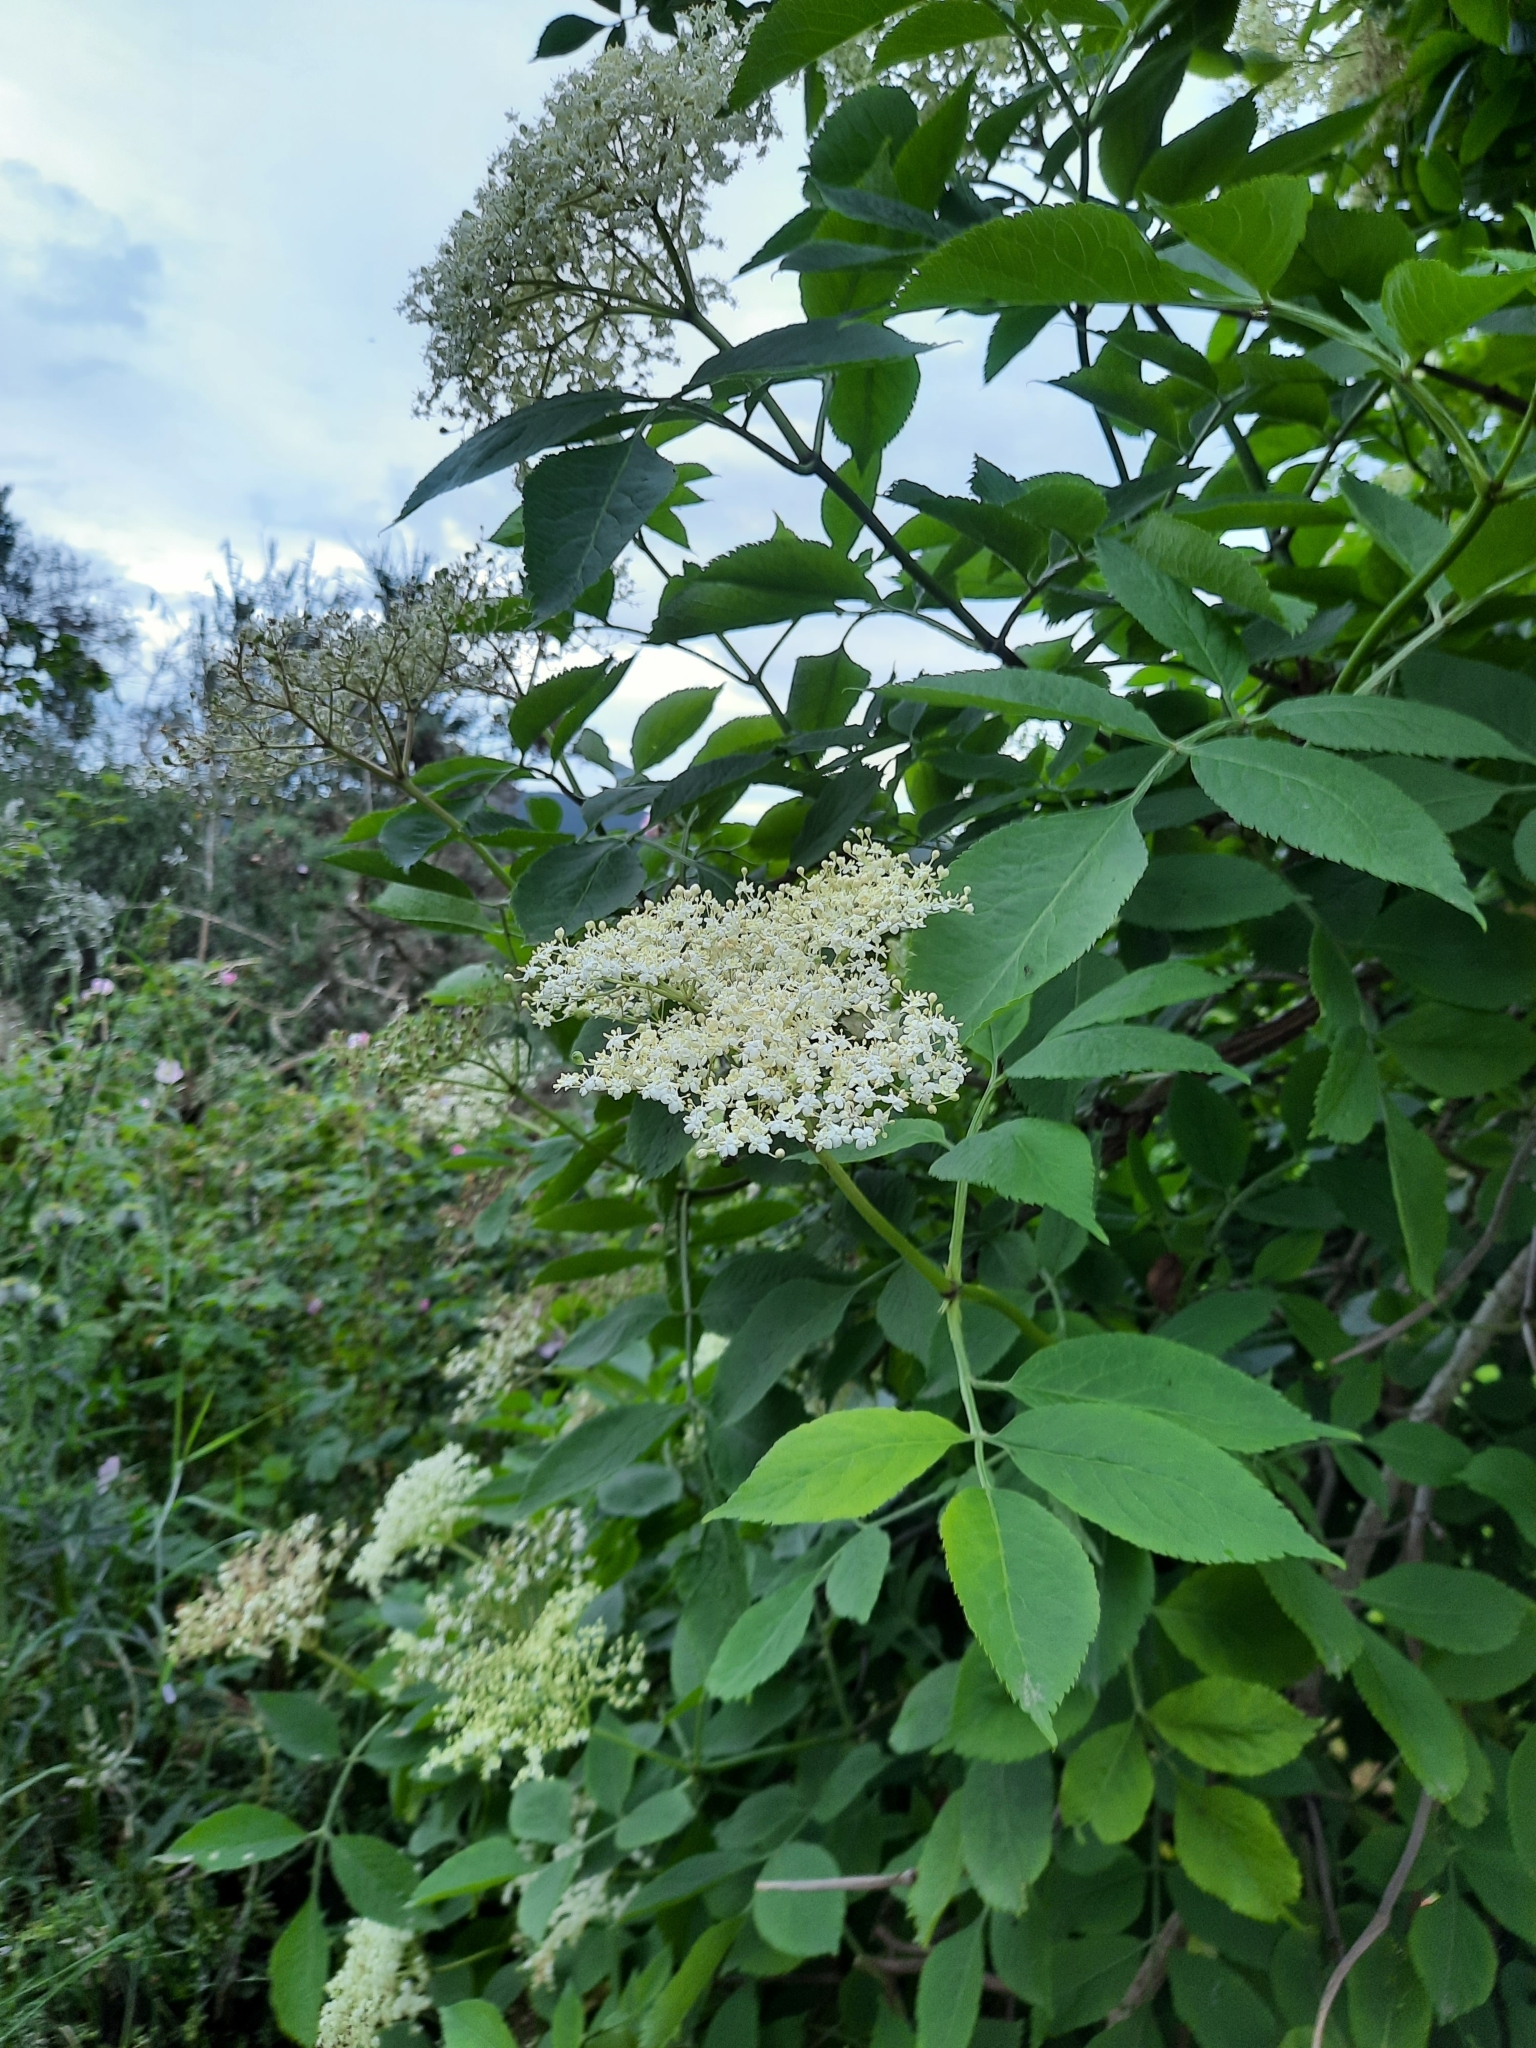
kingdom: Plantae
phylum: Tracheophyta
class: Magnoliopsida
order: Dipsacales
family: Viburnaceae
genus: Sambucus
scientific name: Sambucus nigra
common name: Elder
